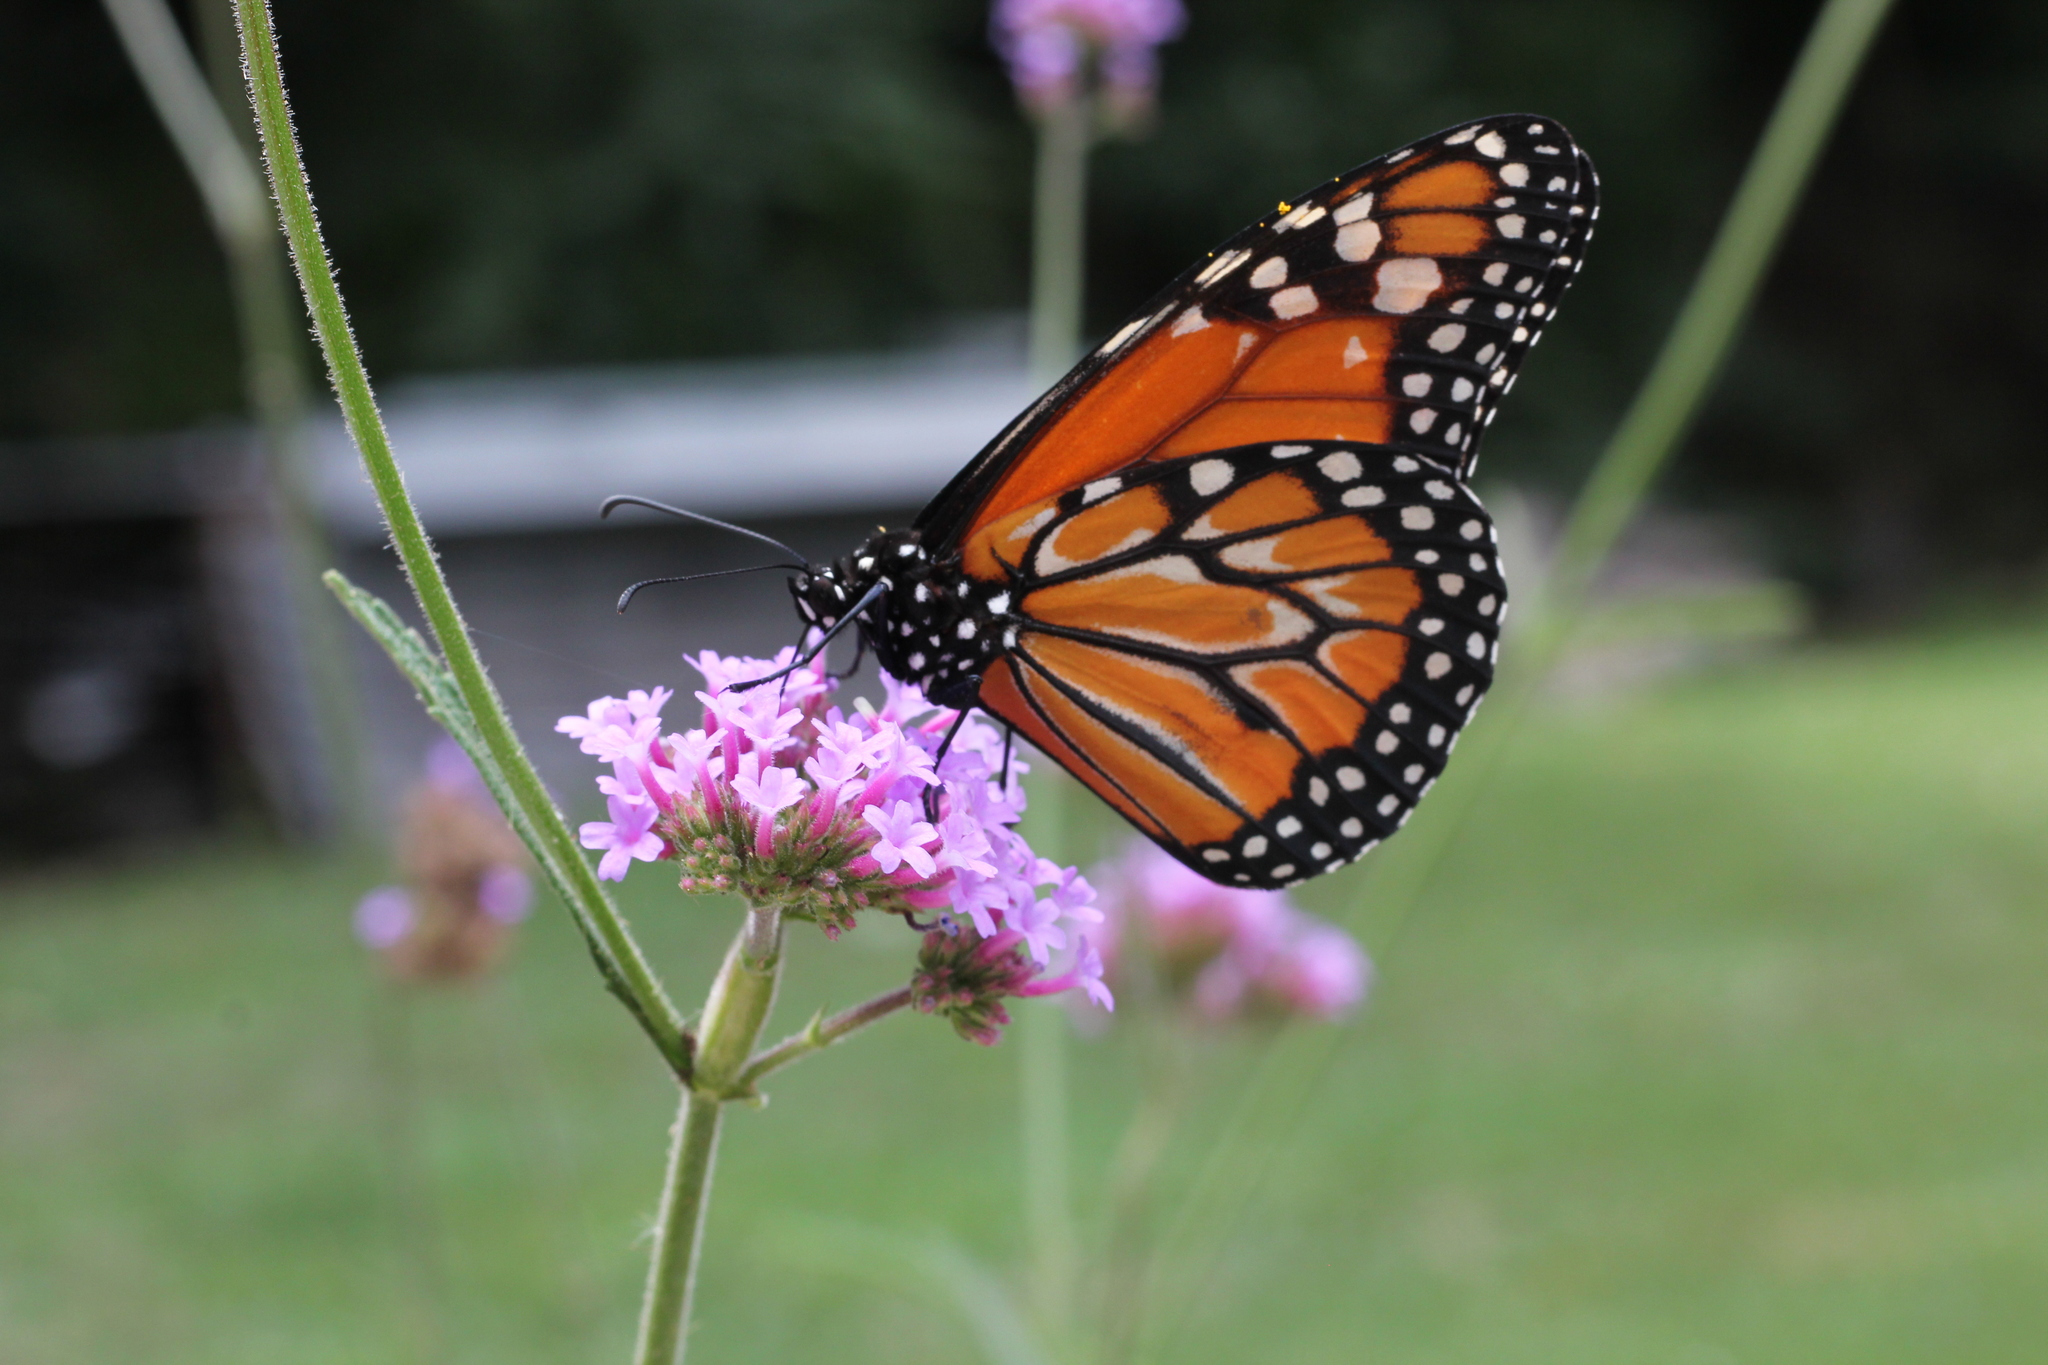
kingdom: Animalia
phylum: Arthropoda
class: Insecta
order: Lepidoptera
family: Nymphalidae
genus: Danaus
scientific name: Danaus erippus
